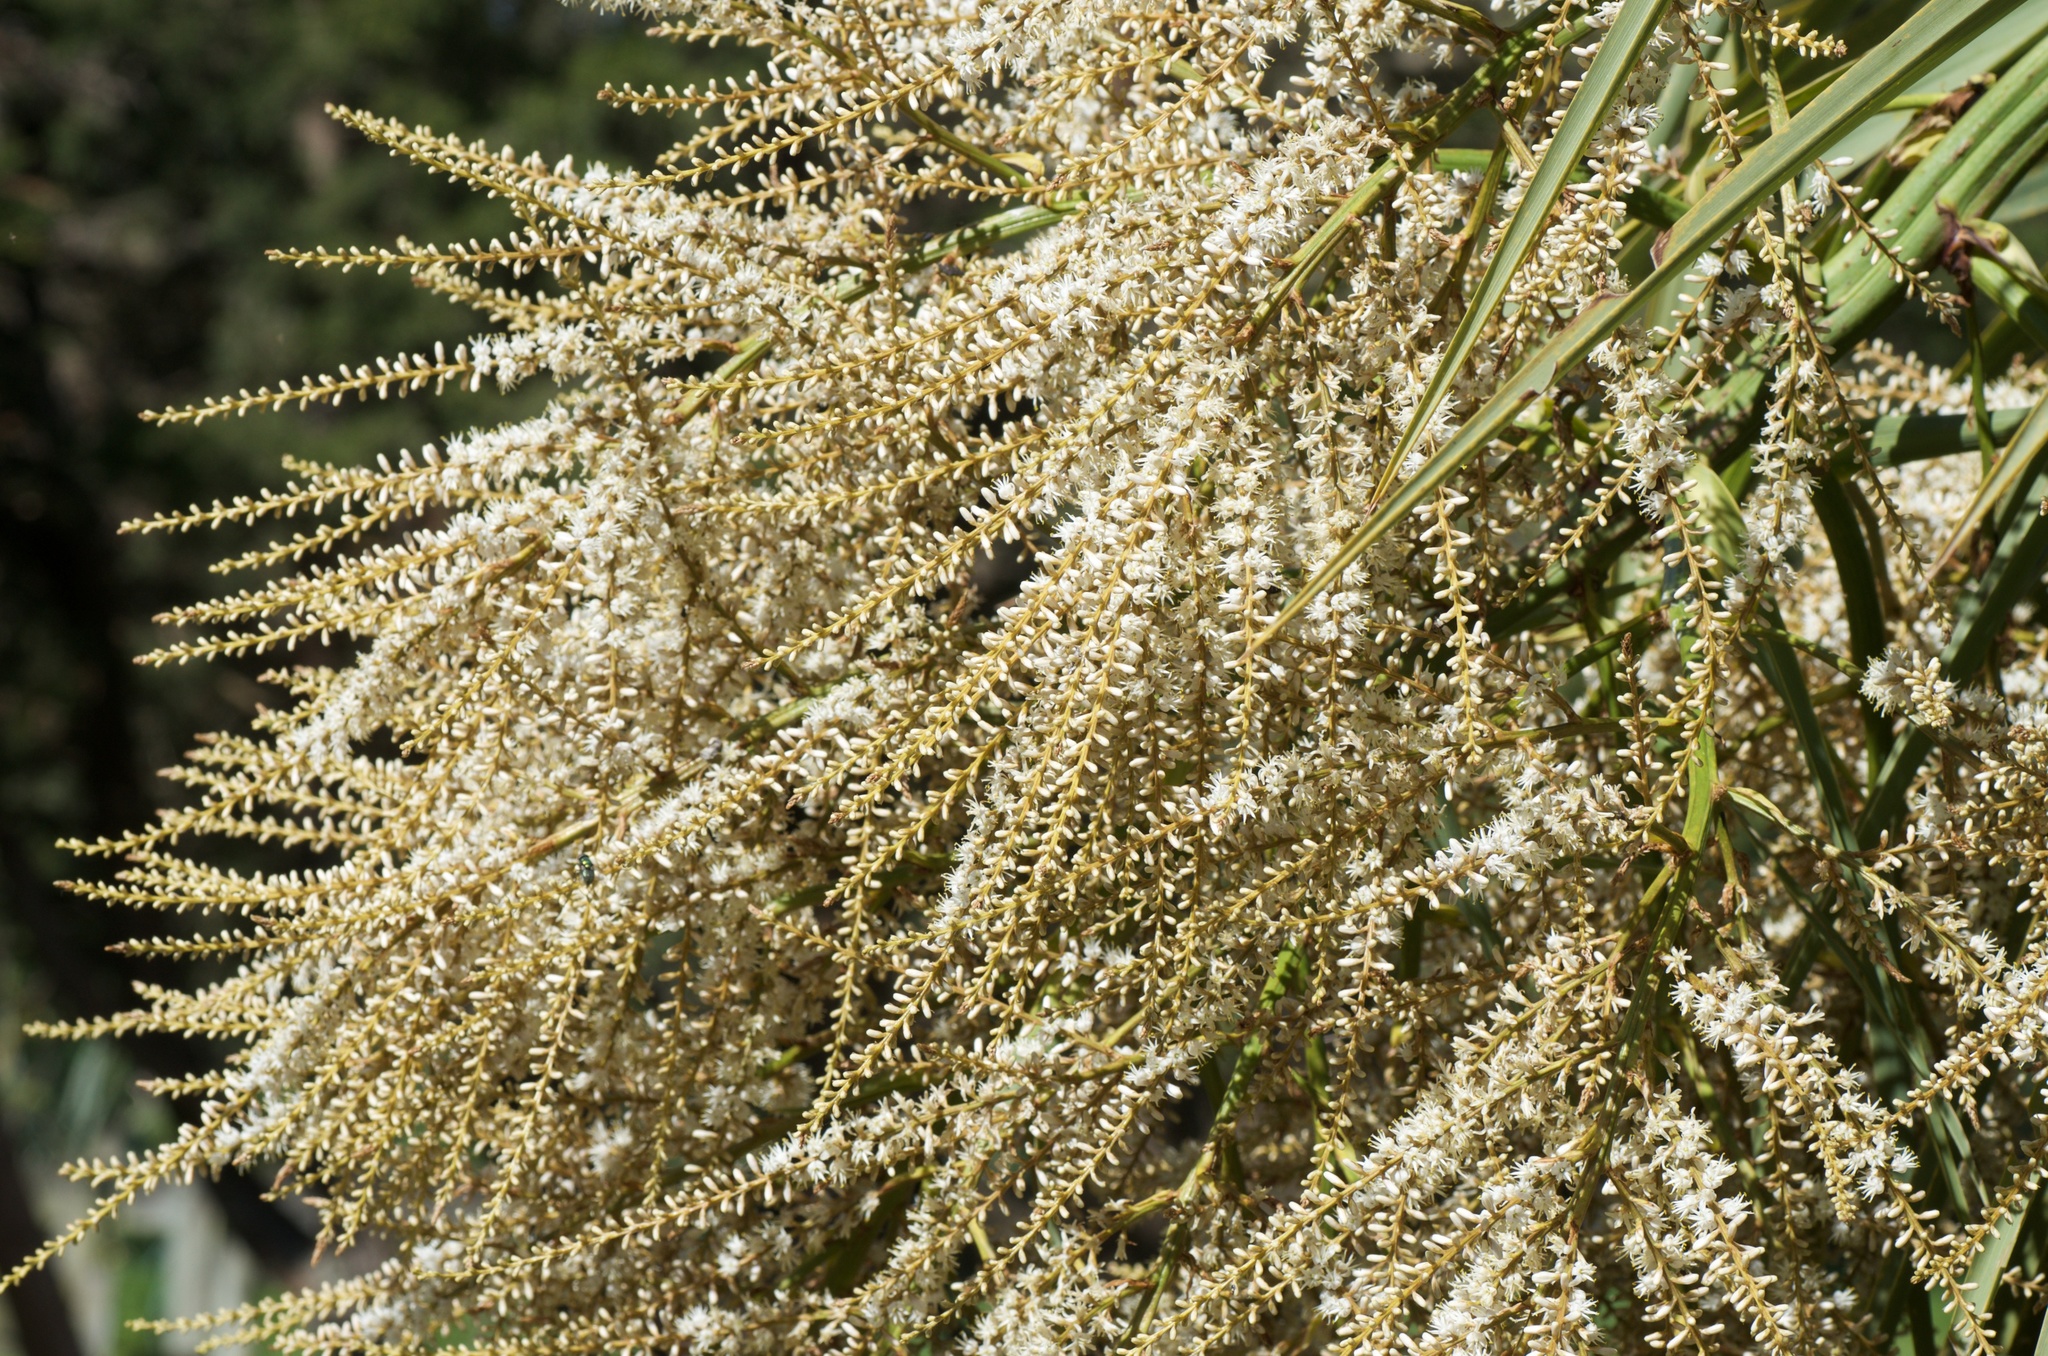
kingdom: Plantae
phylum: Tracheophyta
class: Liliopsida
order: Asparagales
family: Asparagaceae
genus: Cordyline
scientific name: Cordyline australis
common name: Cabbage-palm
